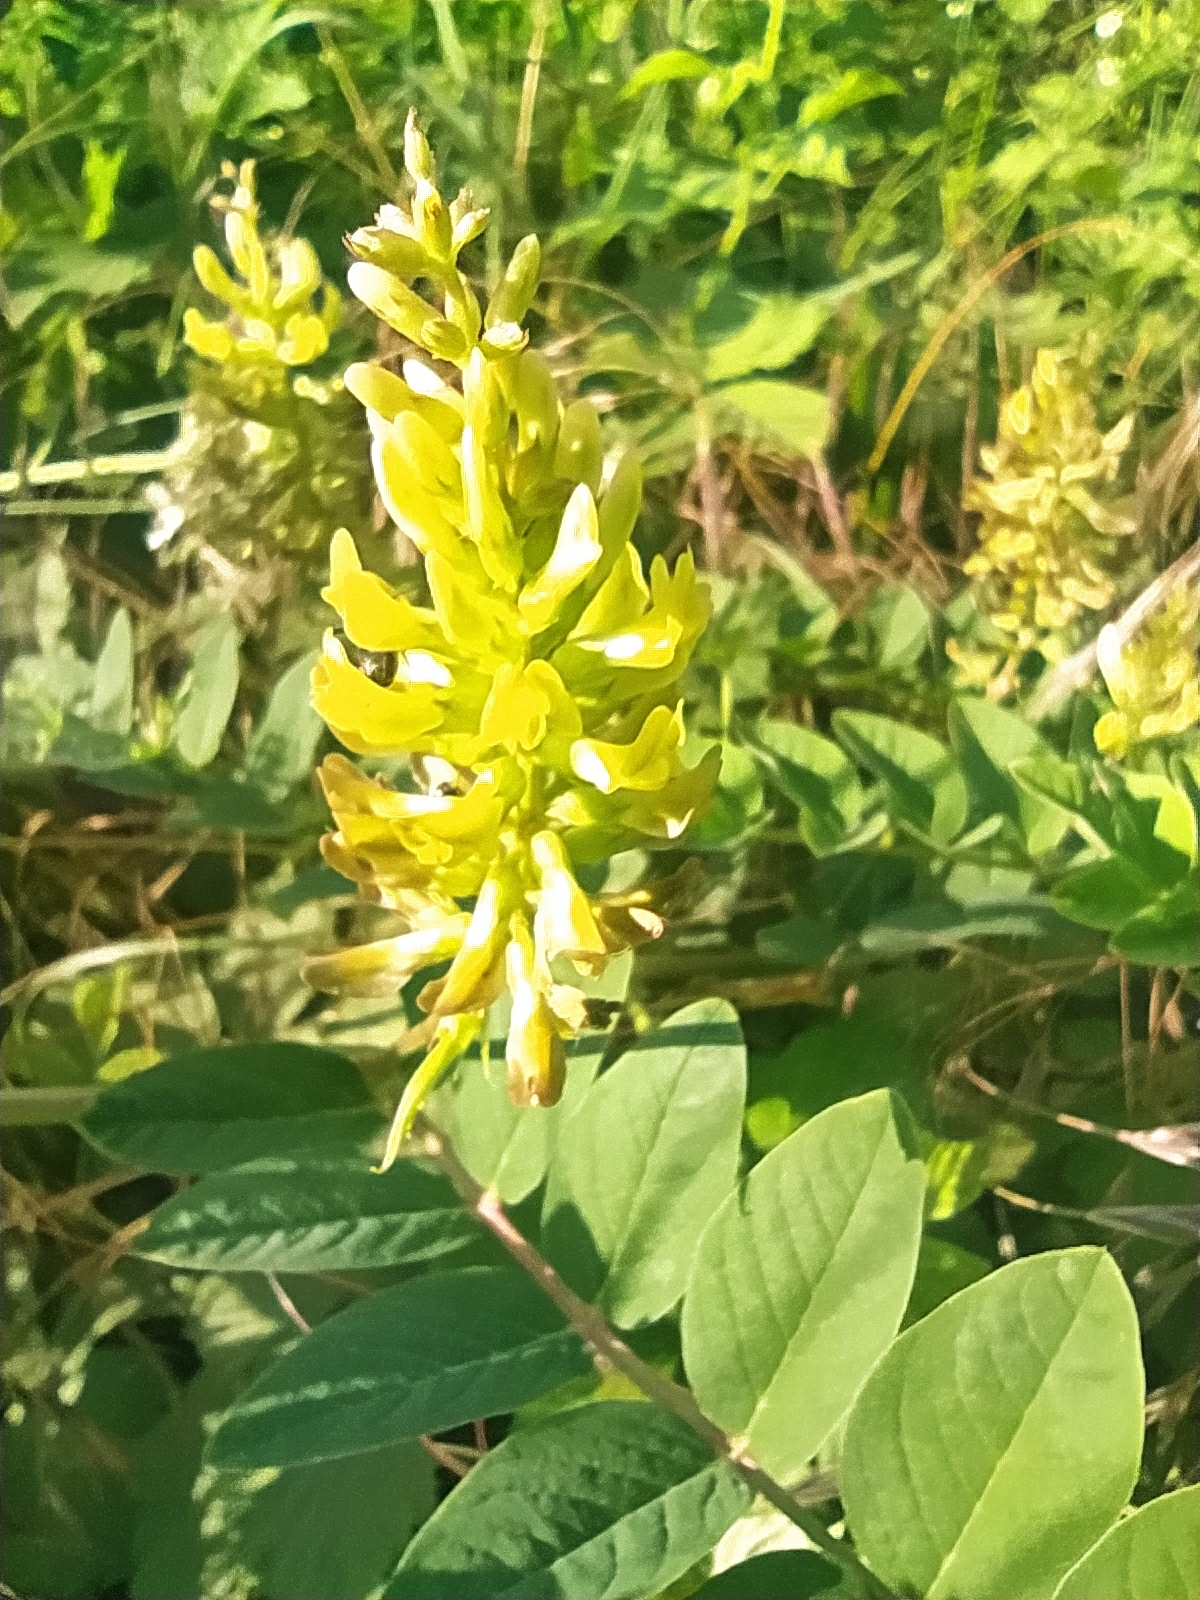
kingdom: Plantae
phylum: Tracheophyta
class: Magnoliopsida
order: Fabales
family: Fabaceae
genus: Astragalus
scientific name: Astragalus glycyphyllos
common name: Wild liquorice
